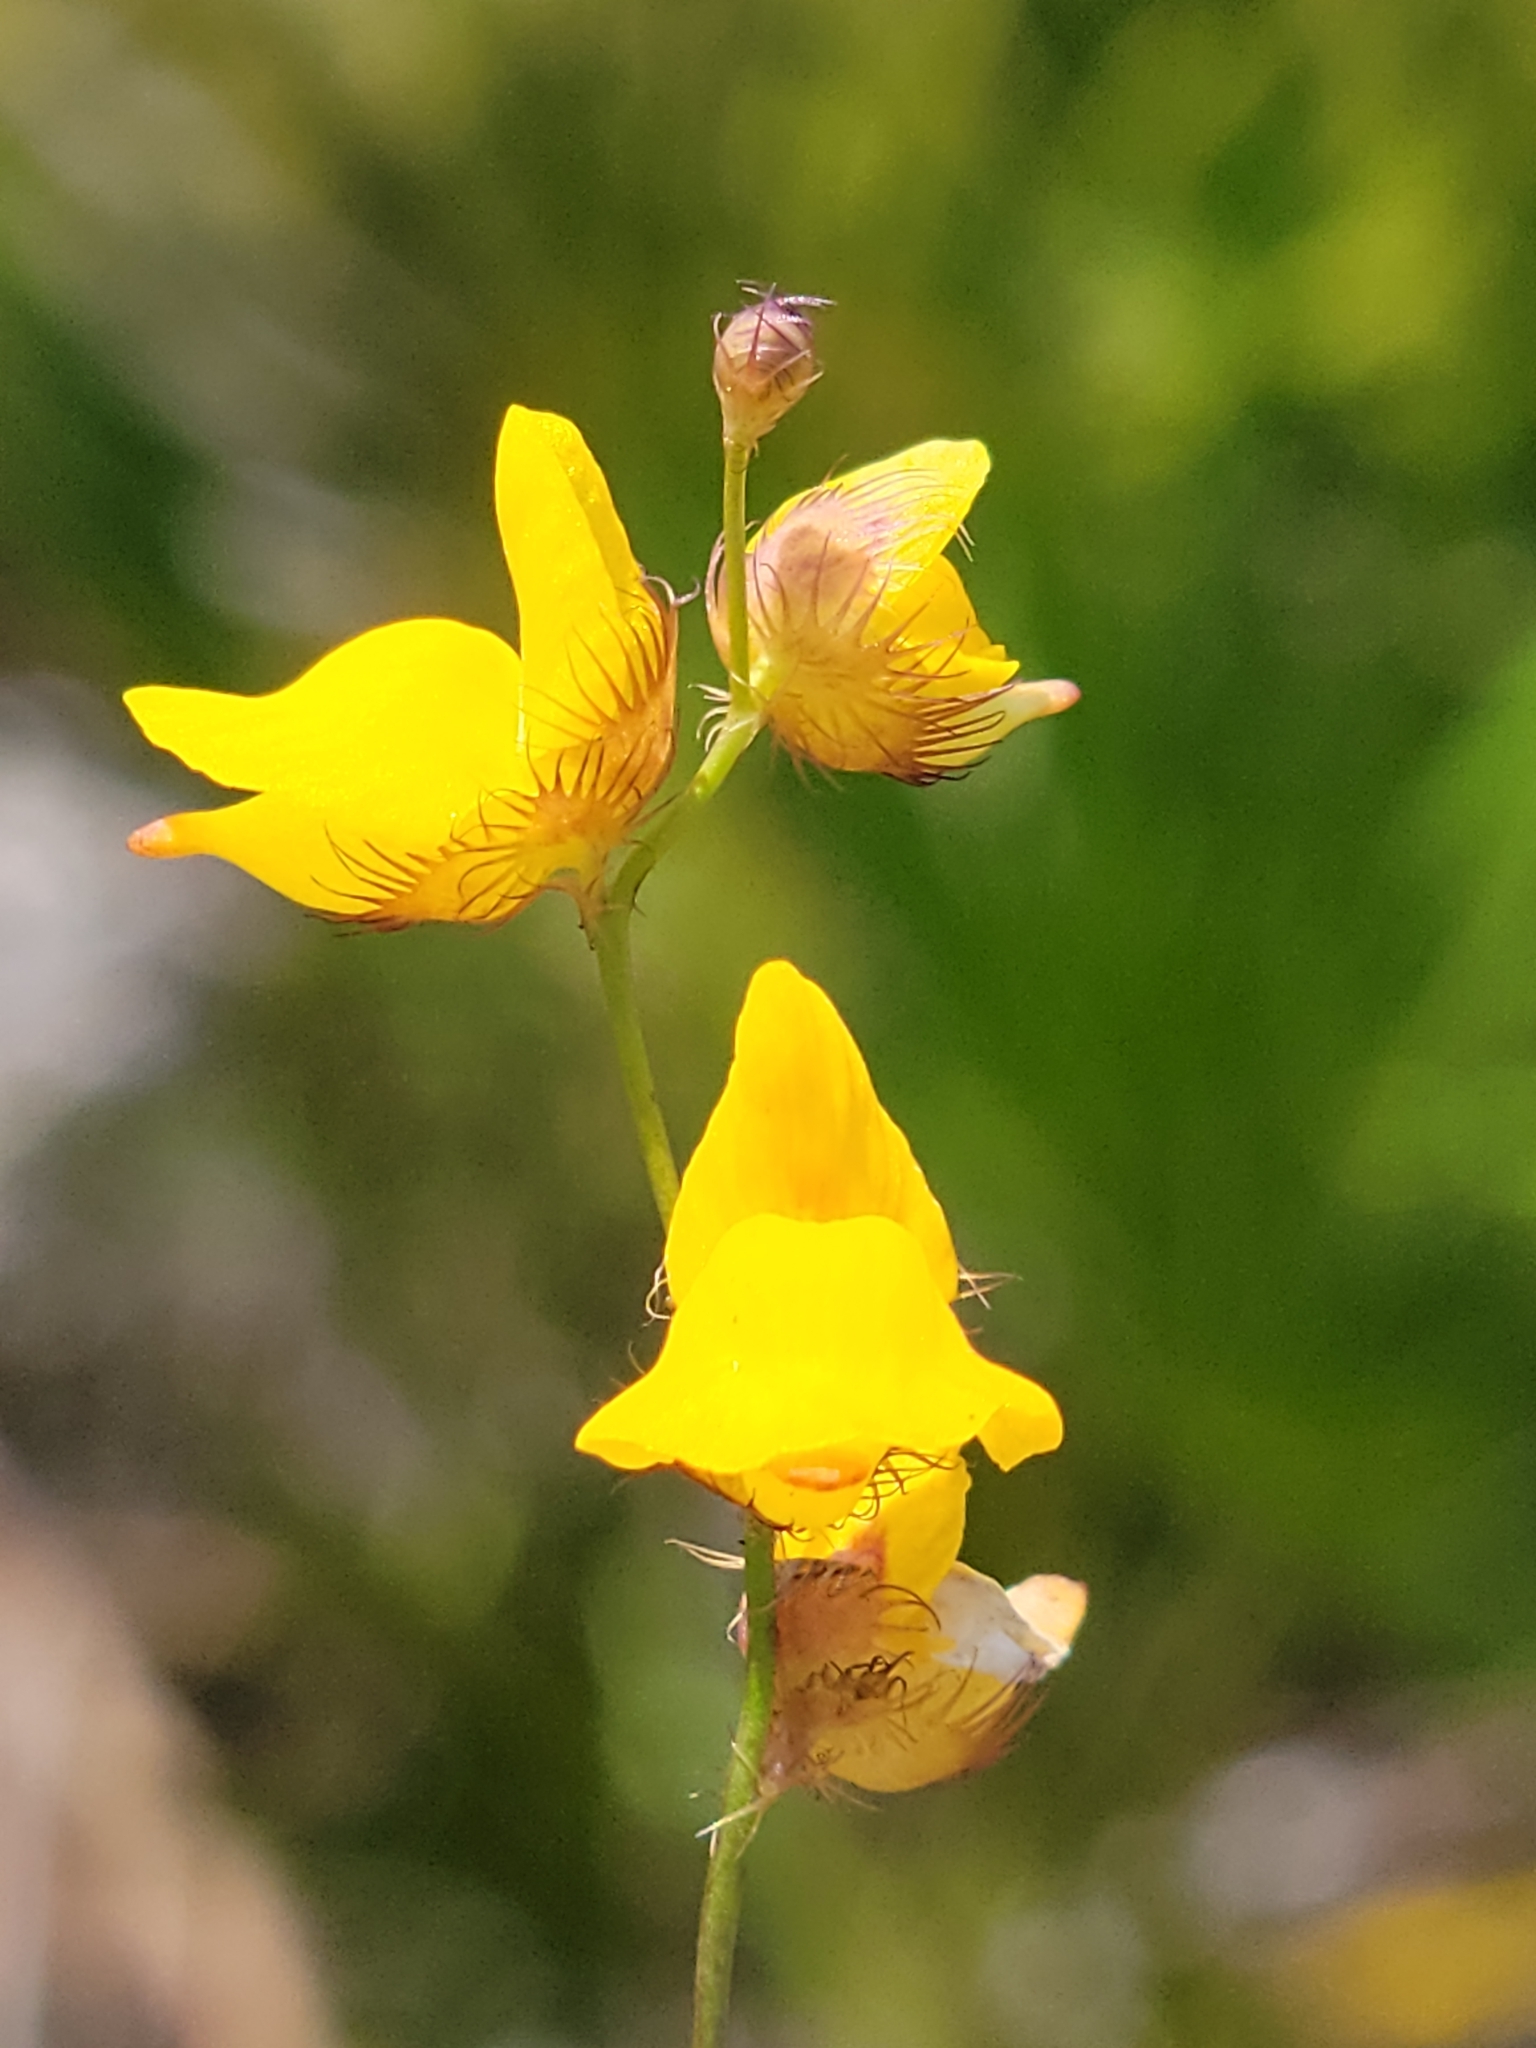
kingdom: Plantae
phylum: Tracheophyta
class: Magnoliopsida
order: Lamiales
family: Lentibulariaceae
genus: Utricularia
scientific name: Utricularia simulans
